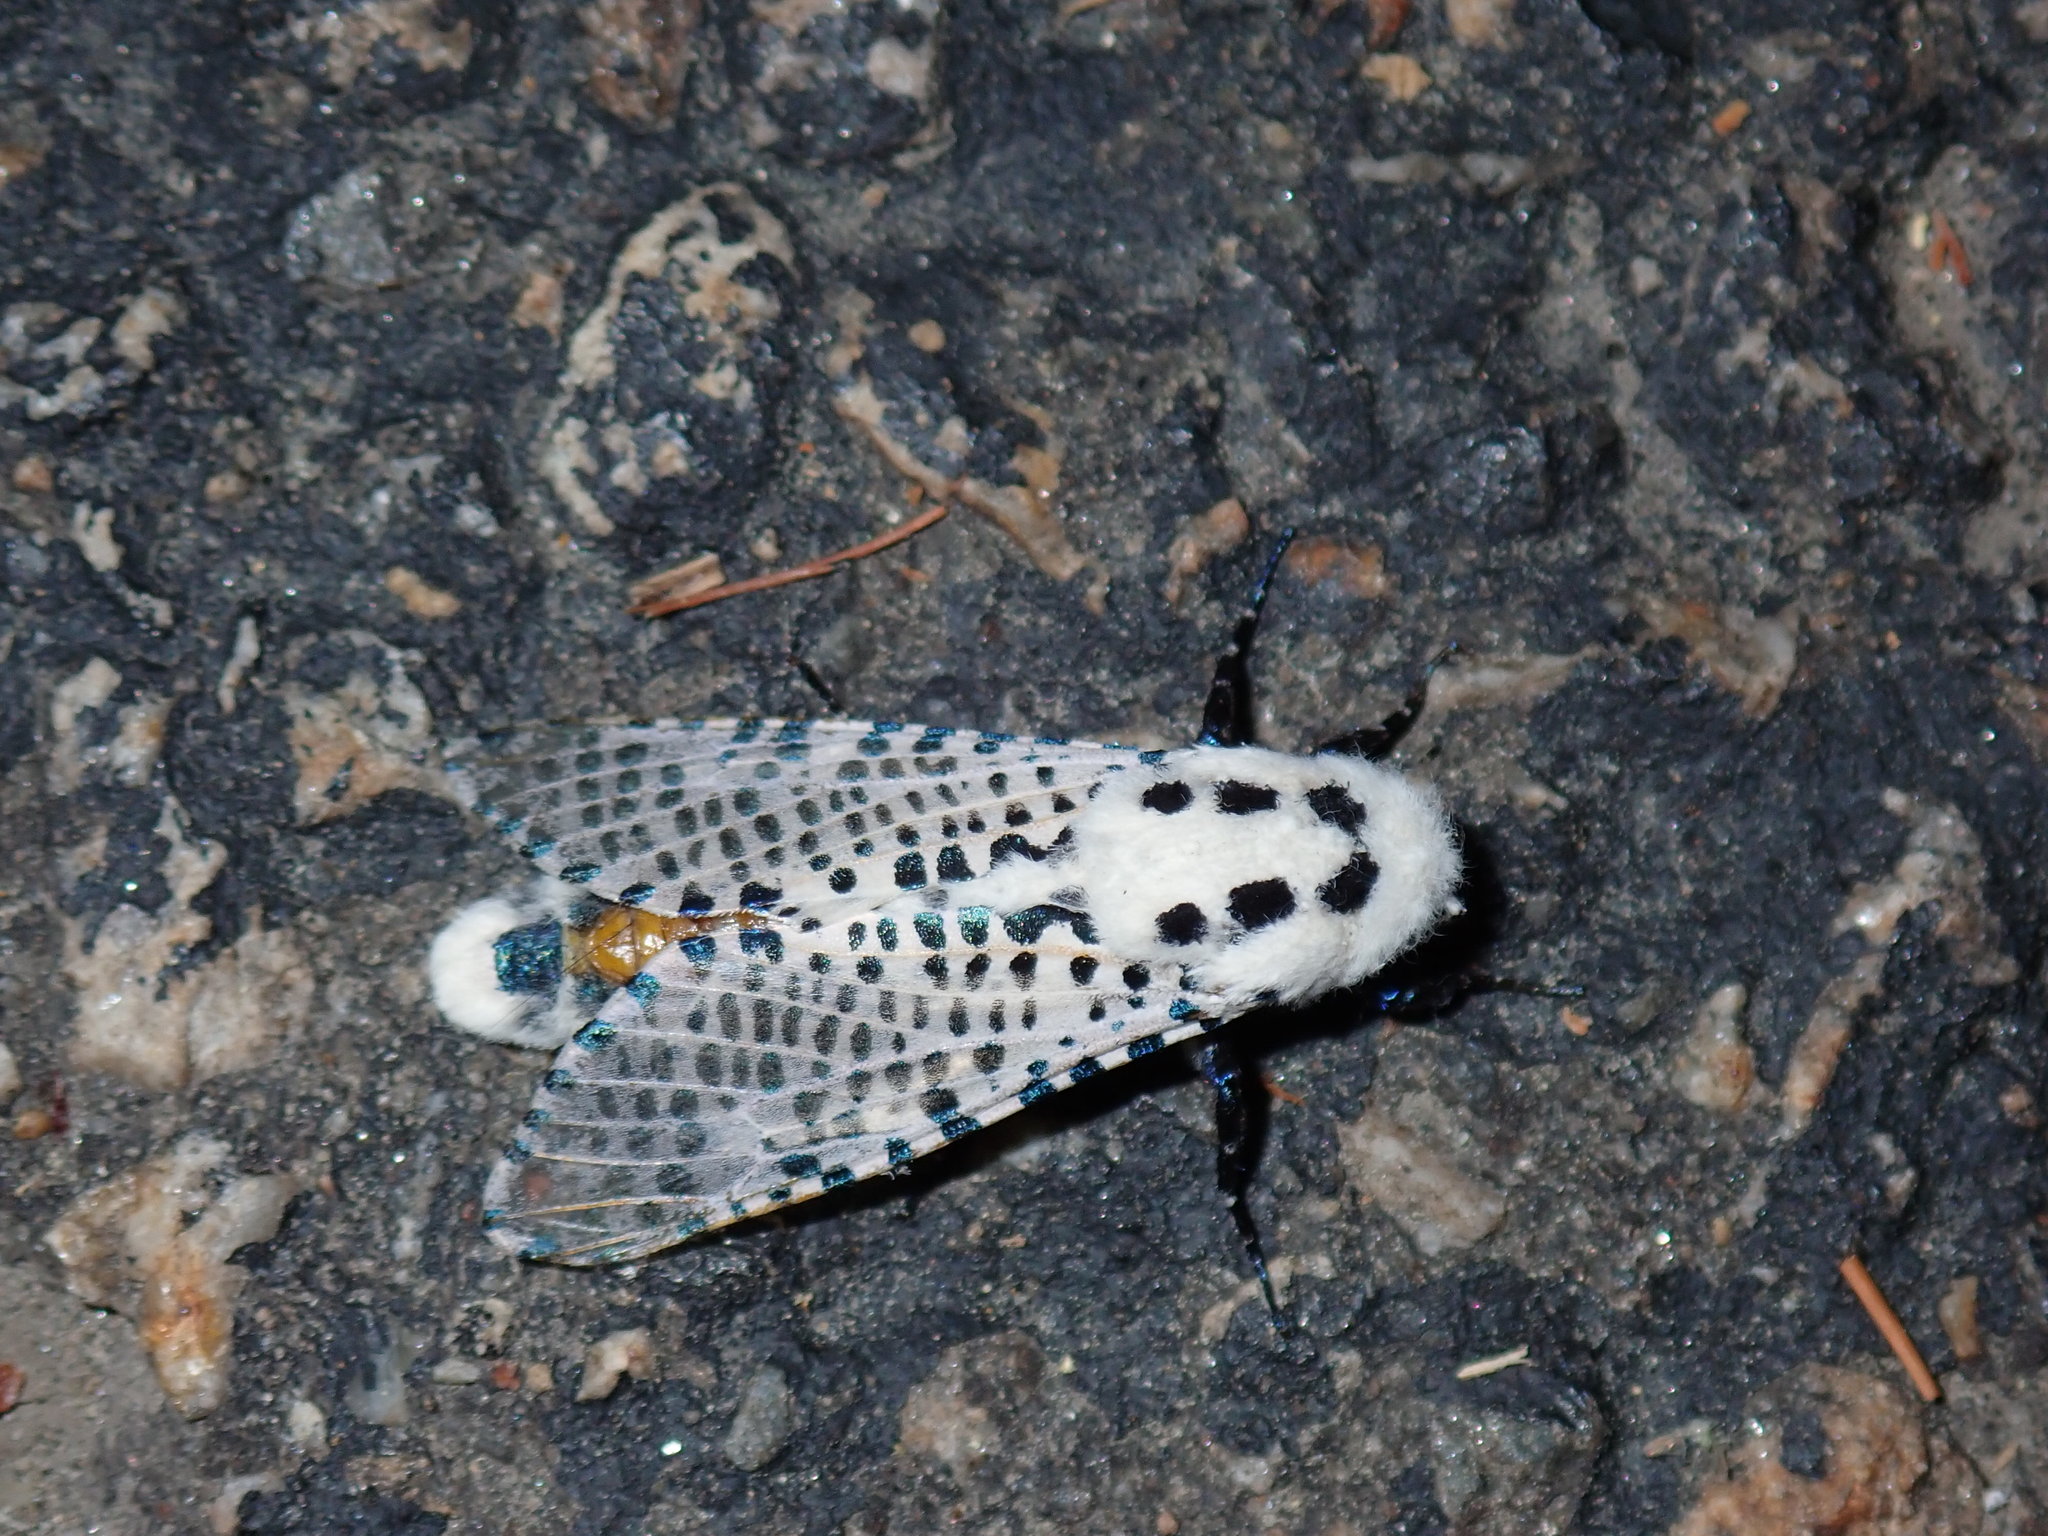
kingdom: Animalia
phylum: Arthropoda
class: Insecta
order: Lepidoptera
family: Cossidae
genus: Zeuzera
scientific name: Zeuzera pyrina
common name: Leopard moth
